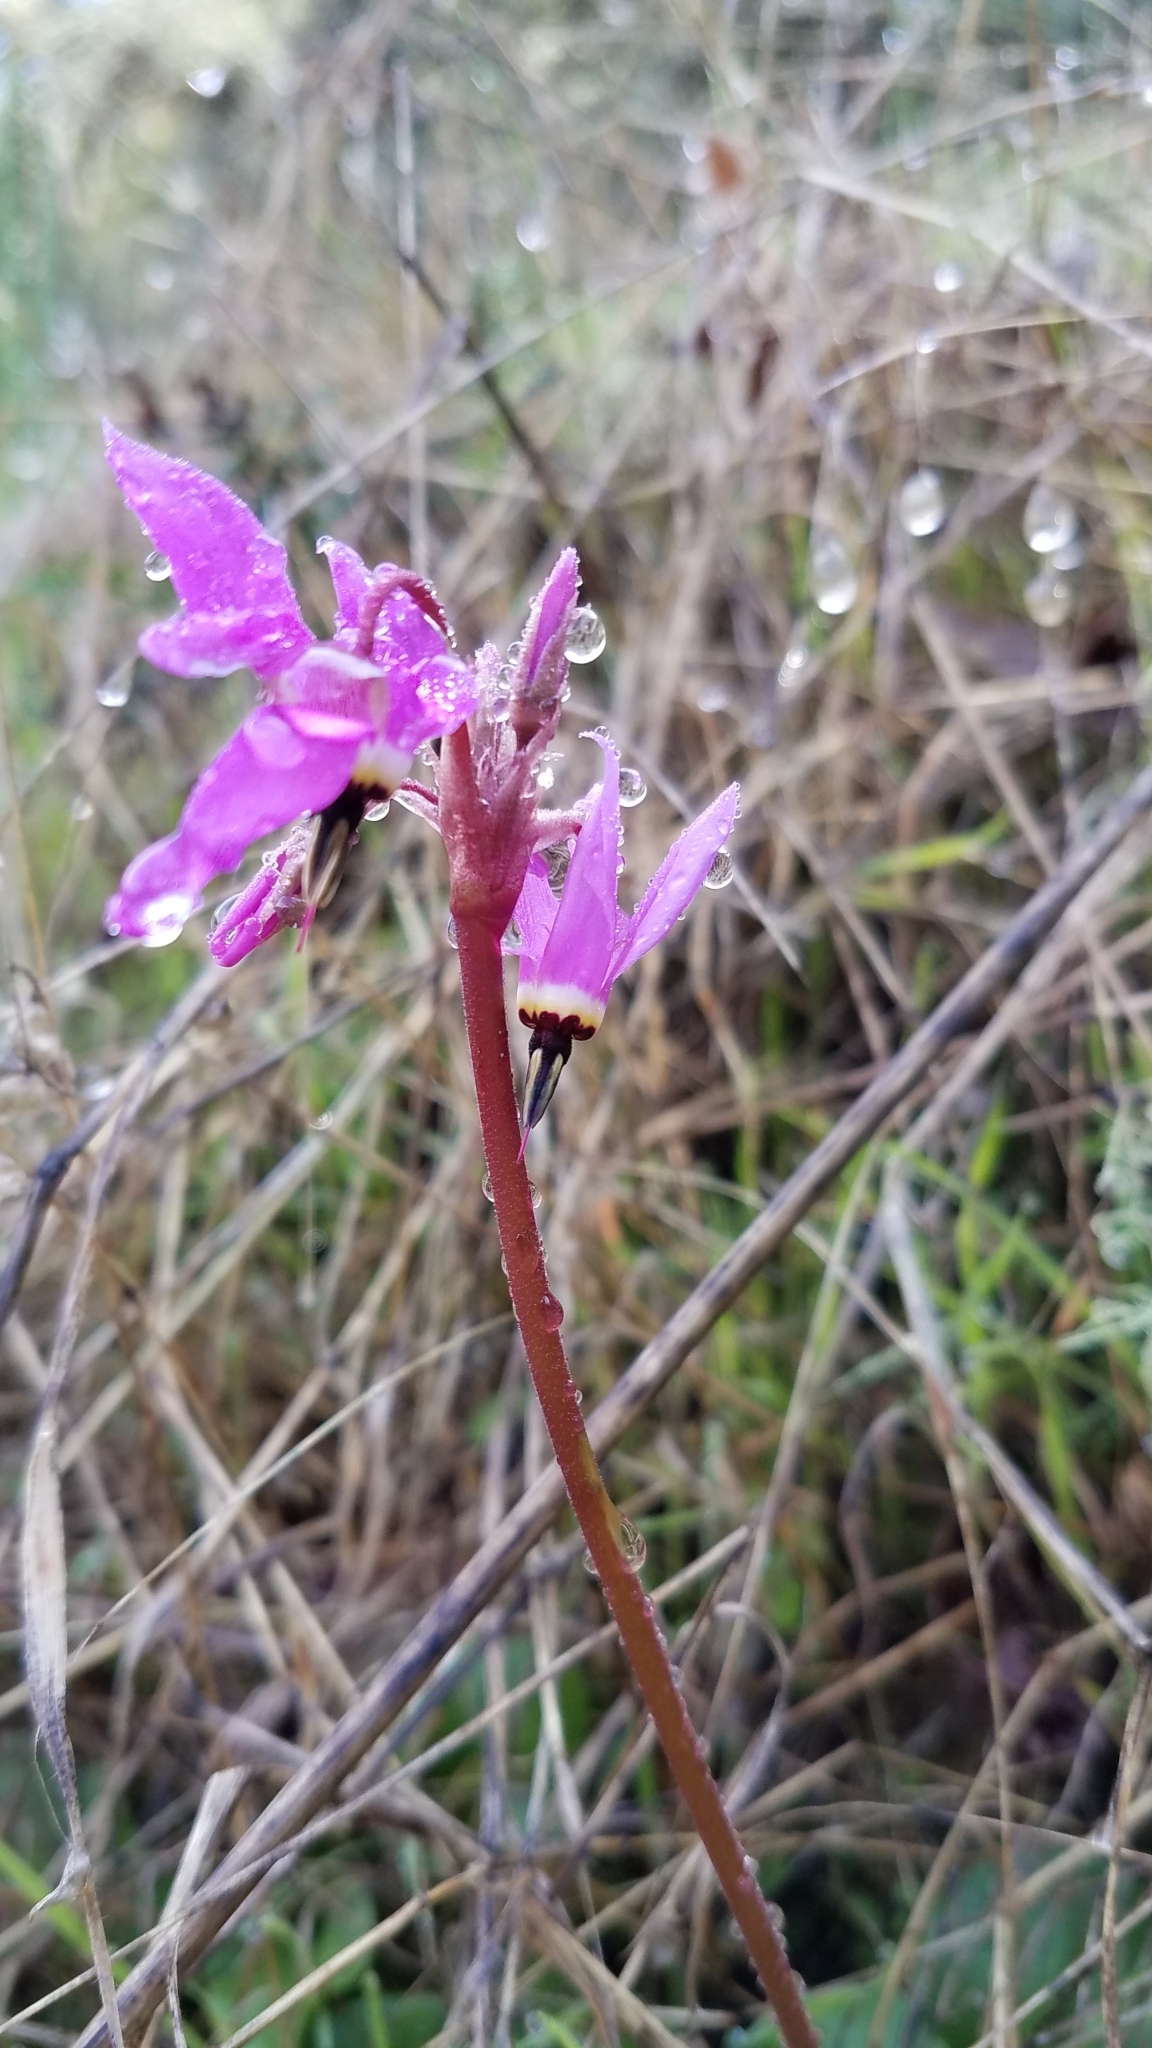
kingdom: Plantae
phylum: Tracheophyta
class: Magnoliopsida
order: Ericales
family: Primulaceae
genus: Dodecatheon
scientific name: Dodecatheon hendersonii
